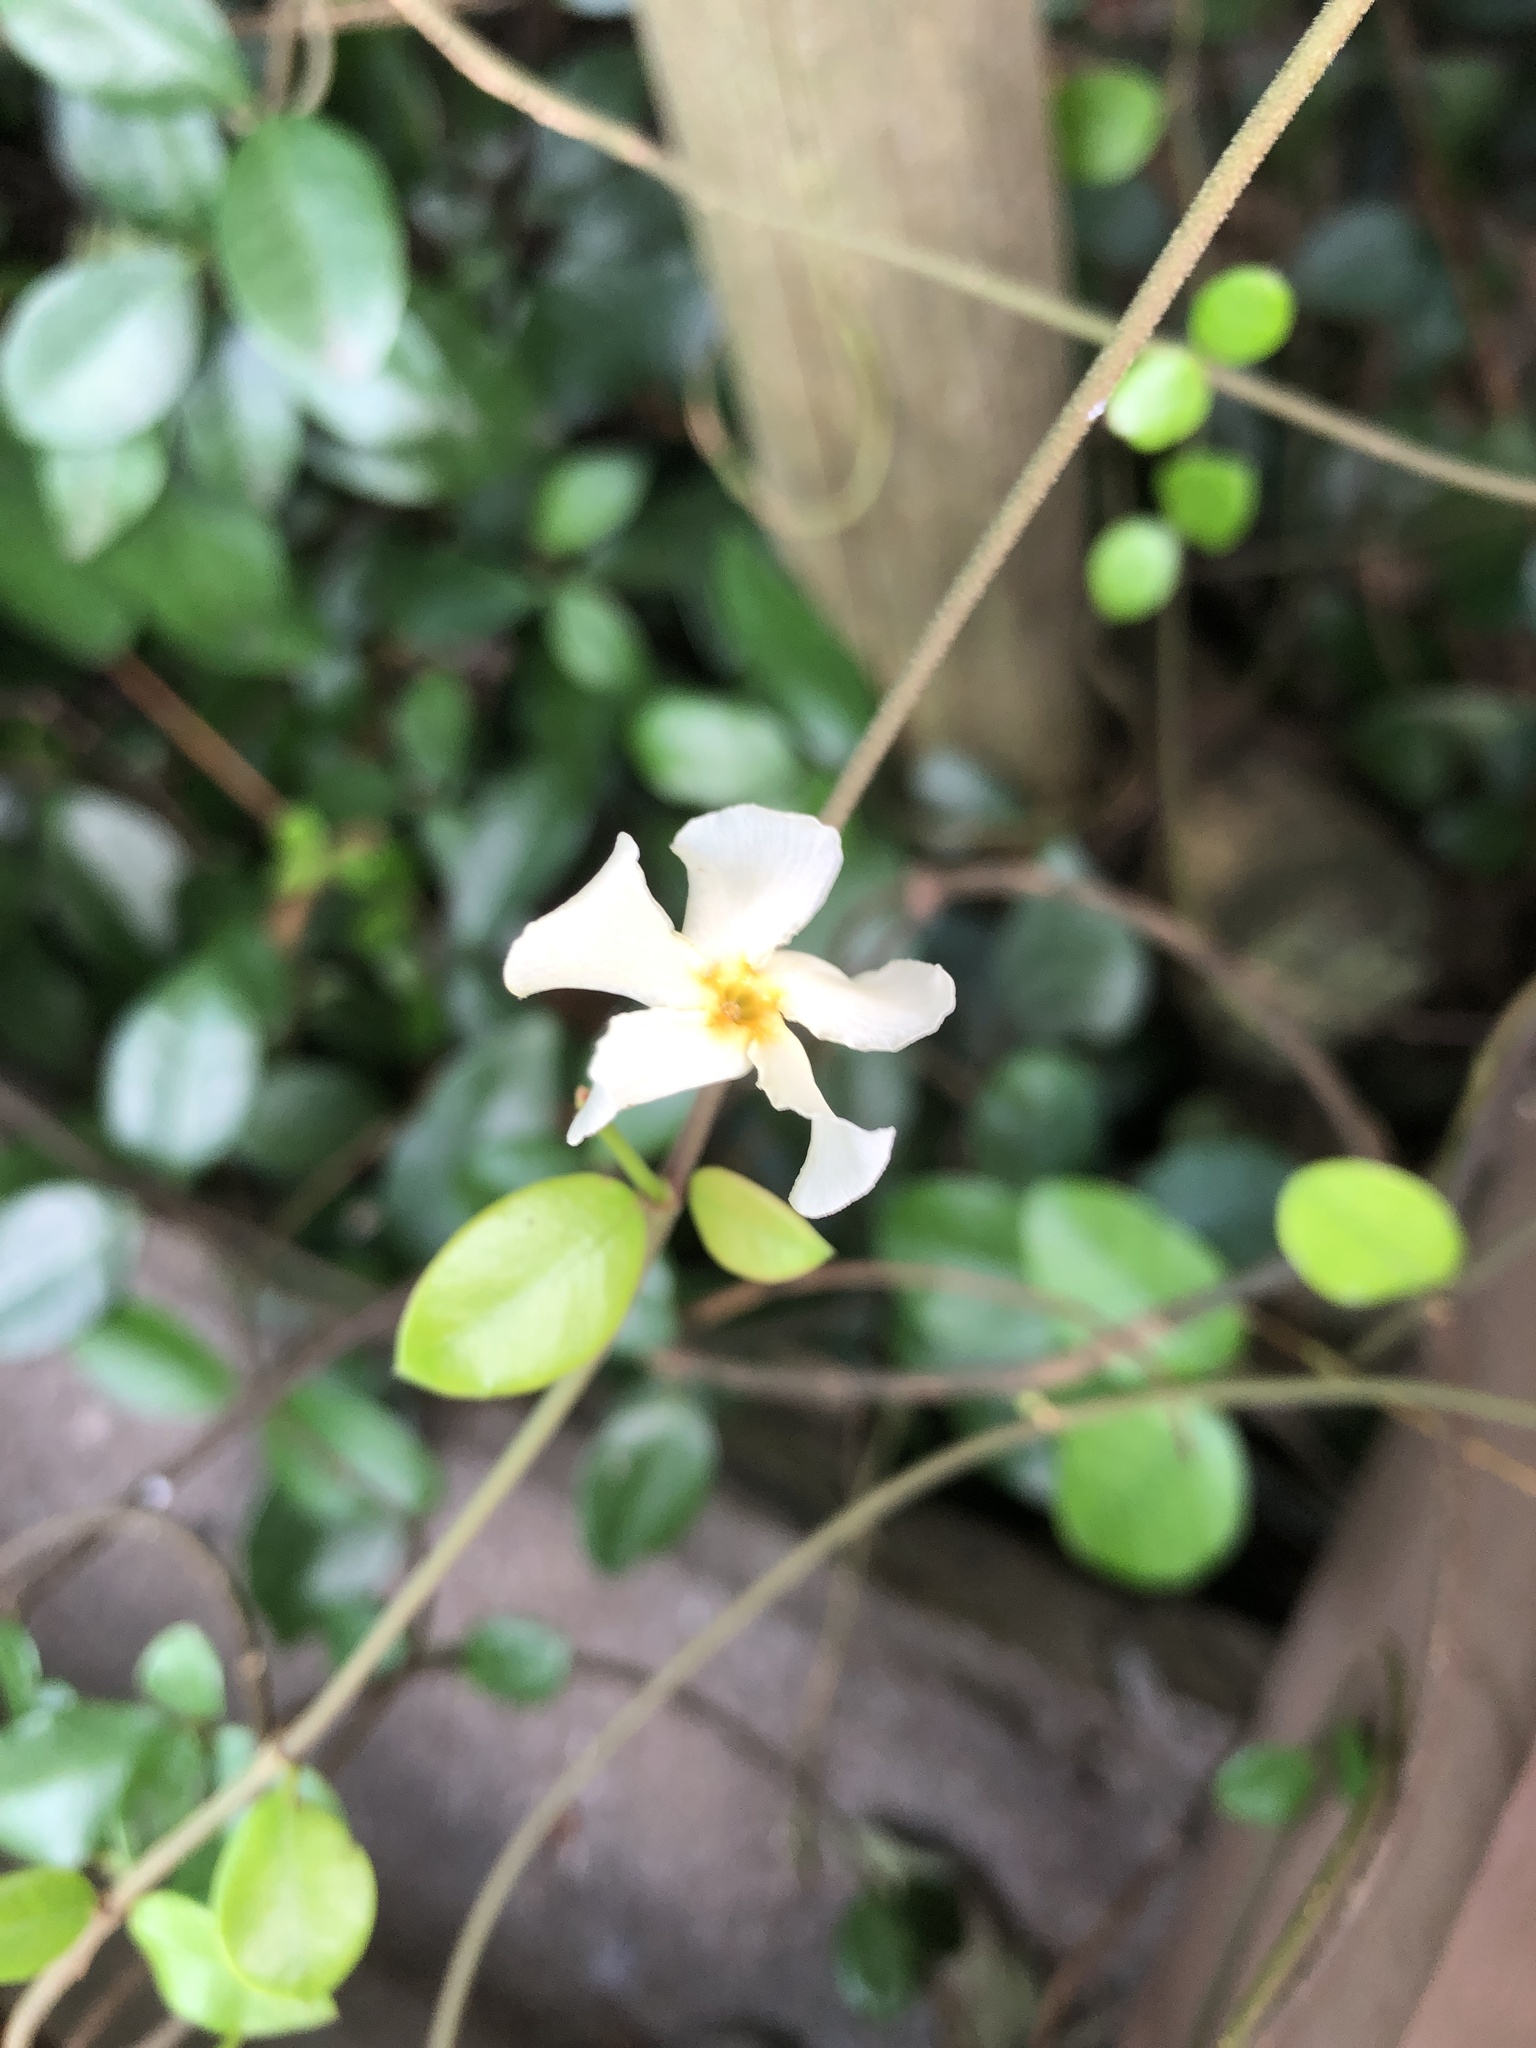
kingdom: Plantae
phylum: Tracheophyta
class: Magnoliopsida
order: Gentianales
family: Apocynaceae
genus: Trachelospermum
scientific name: Trachelospermum asiaticum
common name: Asiatic jasmine
